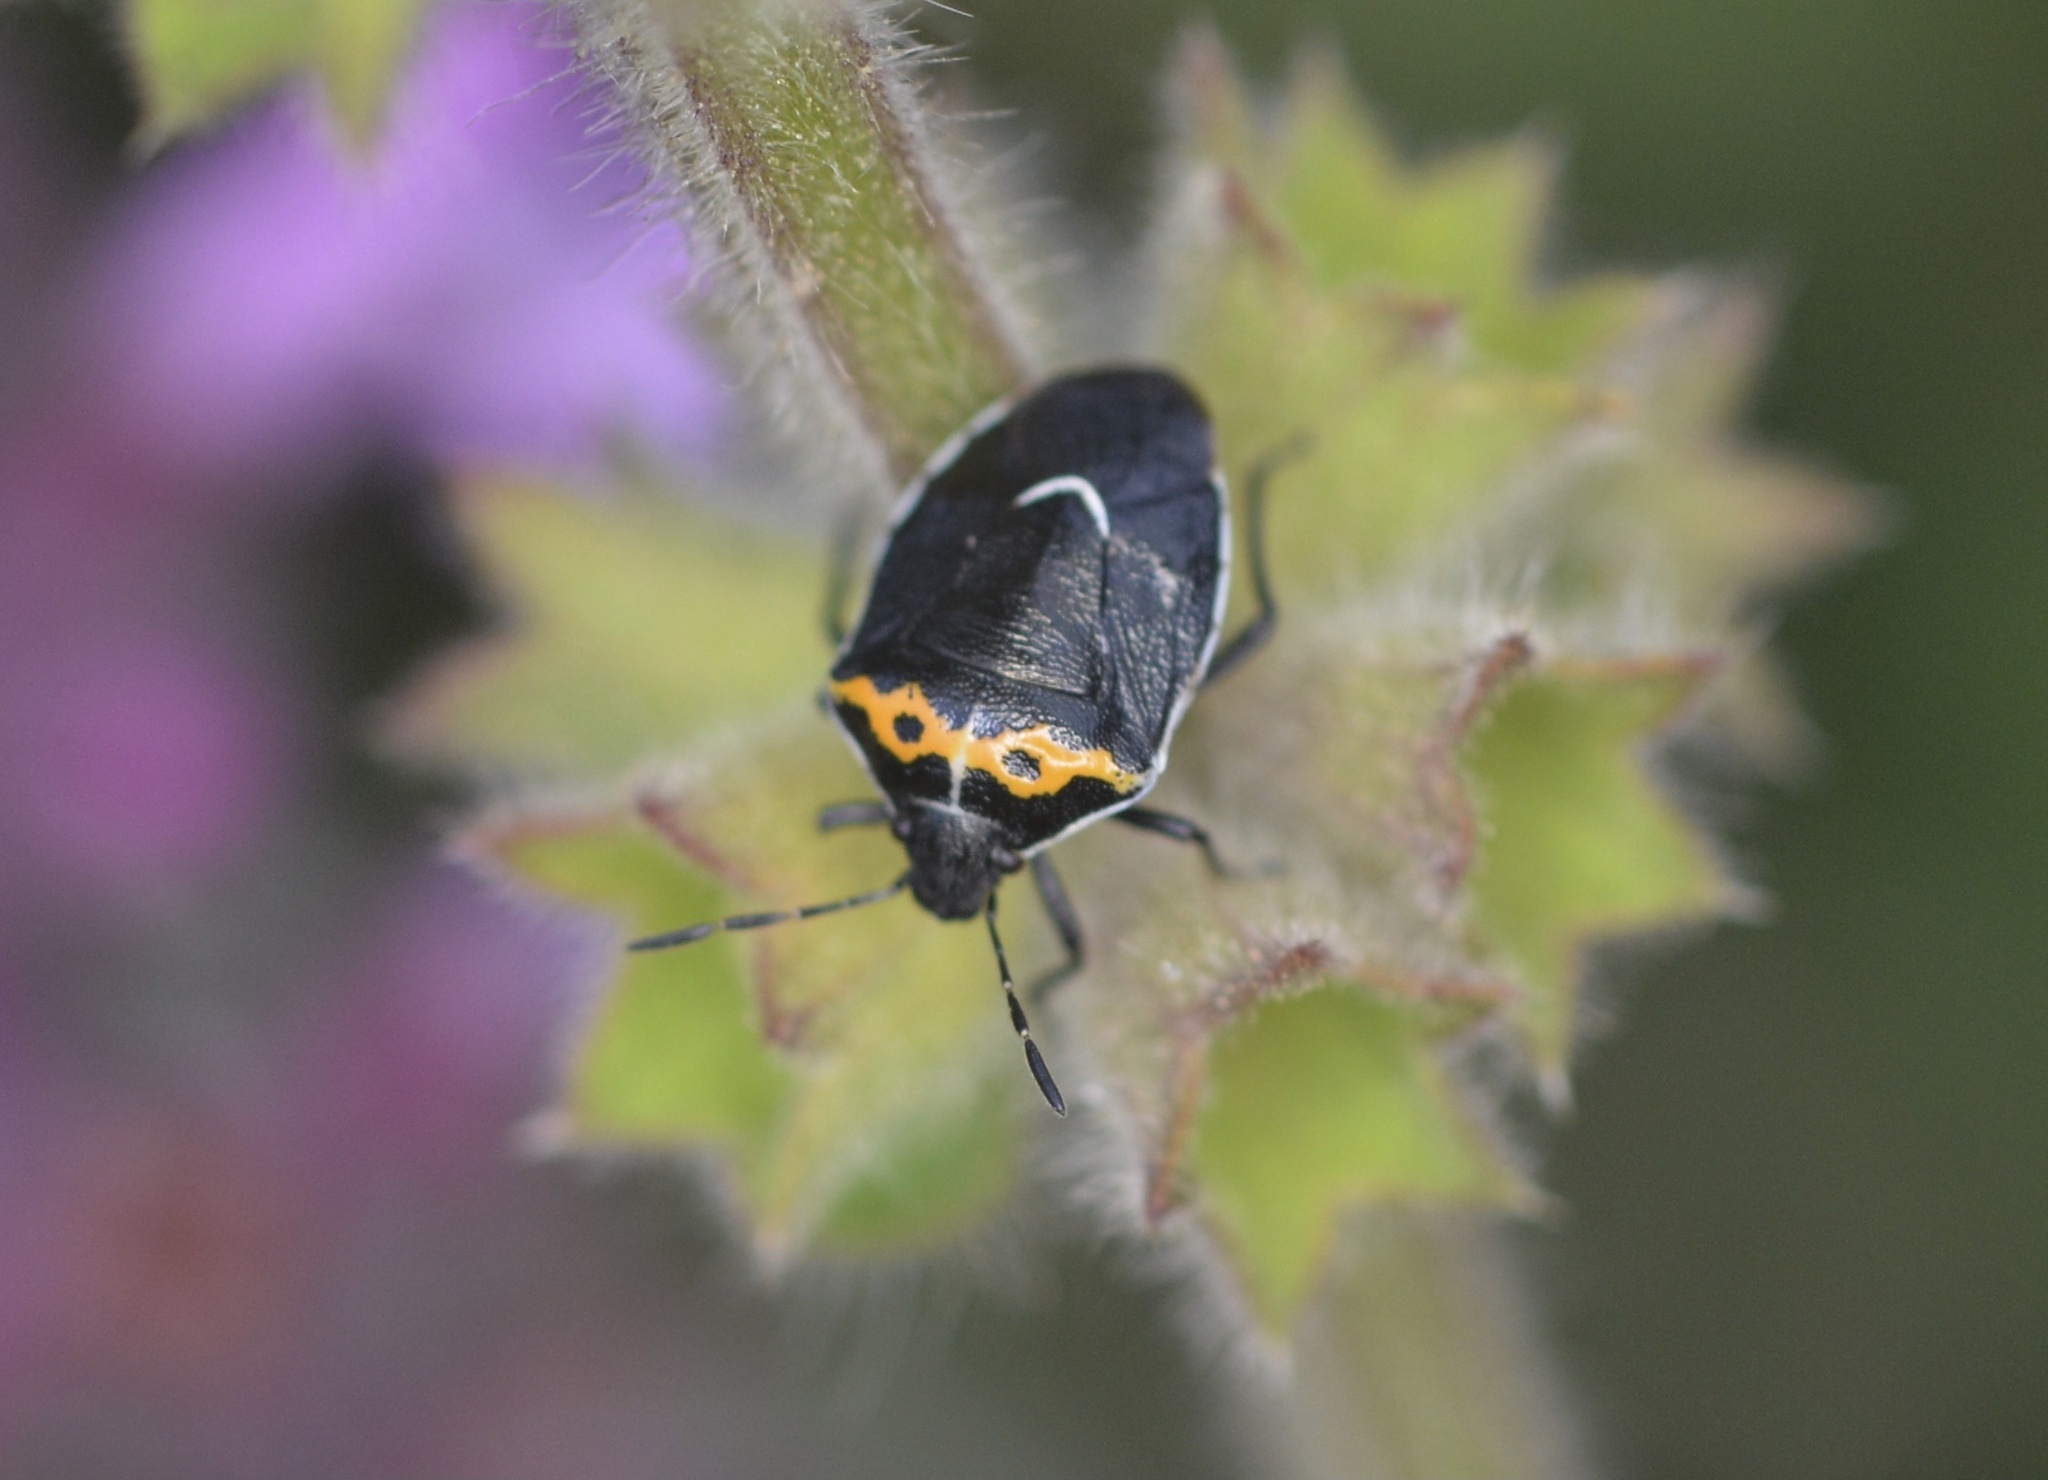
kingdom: Animalia
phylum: Arthropoda
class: Insecta
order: Hemiptera
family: Pentatomidae
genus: Cosmopepla
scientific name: Cosmopepla conspicillaris
